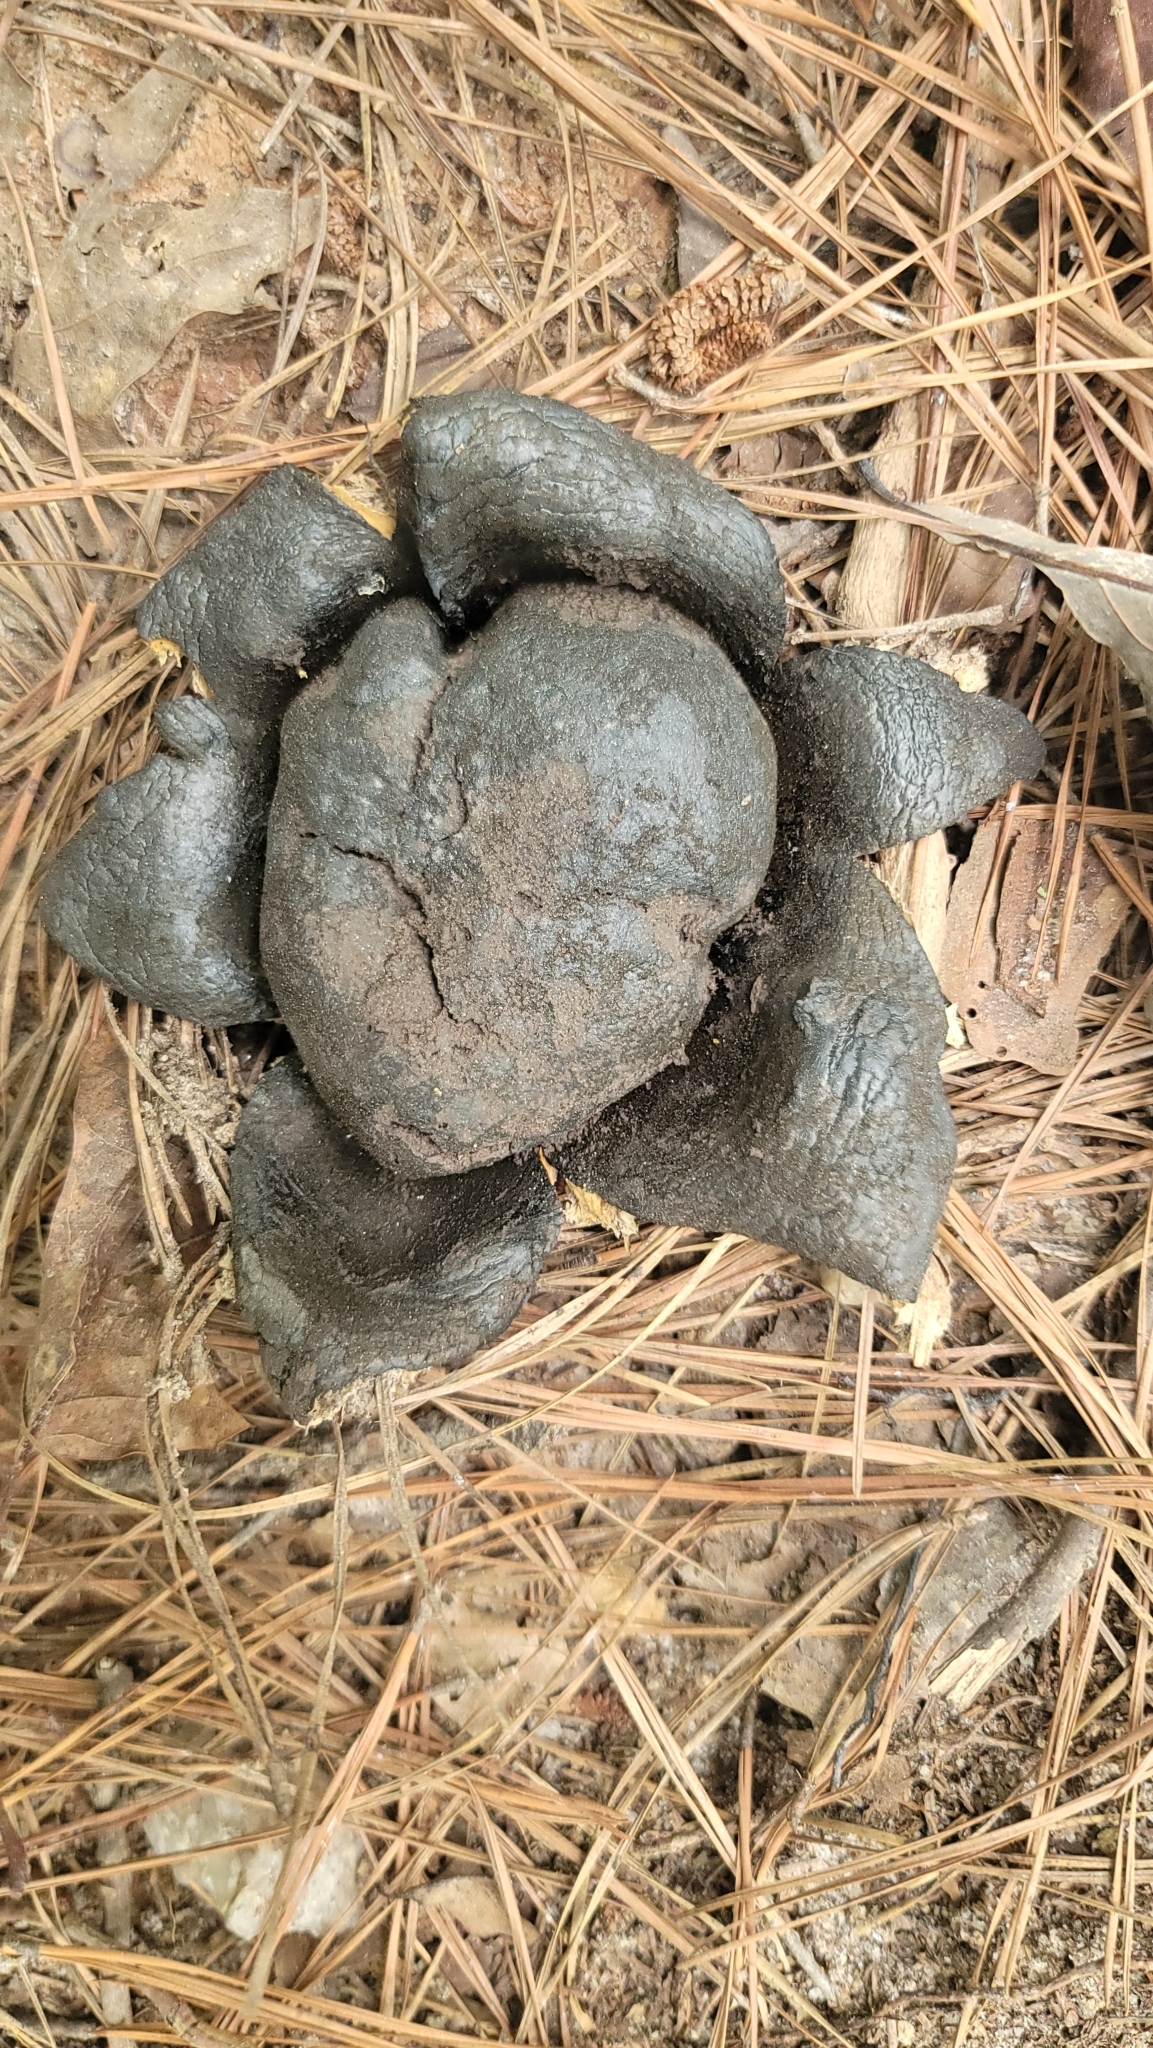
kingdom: Fungi
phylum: Basidiomycota
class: Agaricomycetes
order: Boletales
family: Sclerodermataceae
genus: Scleroderma
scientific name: Scleroderma polyrhizum
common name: Many-rooted earthball
